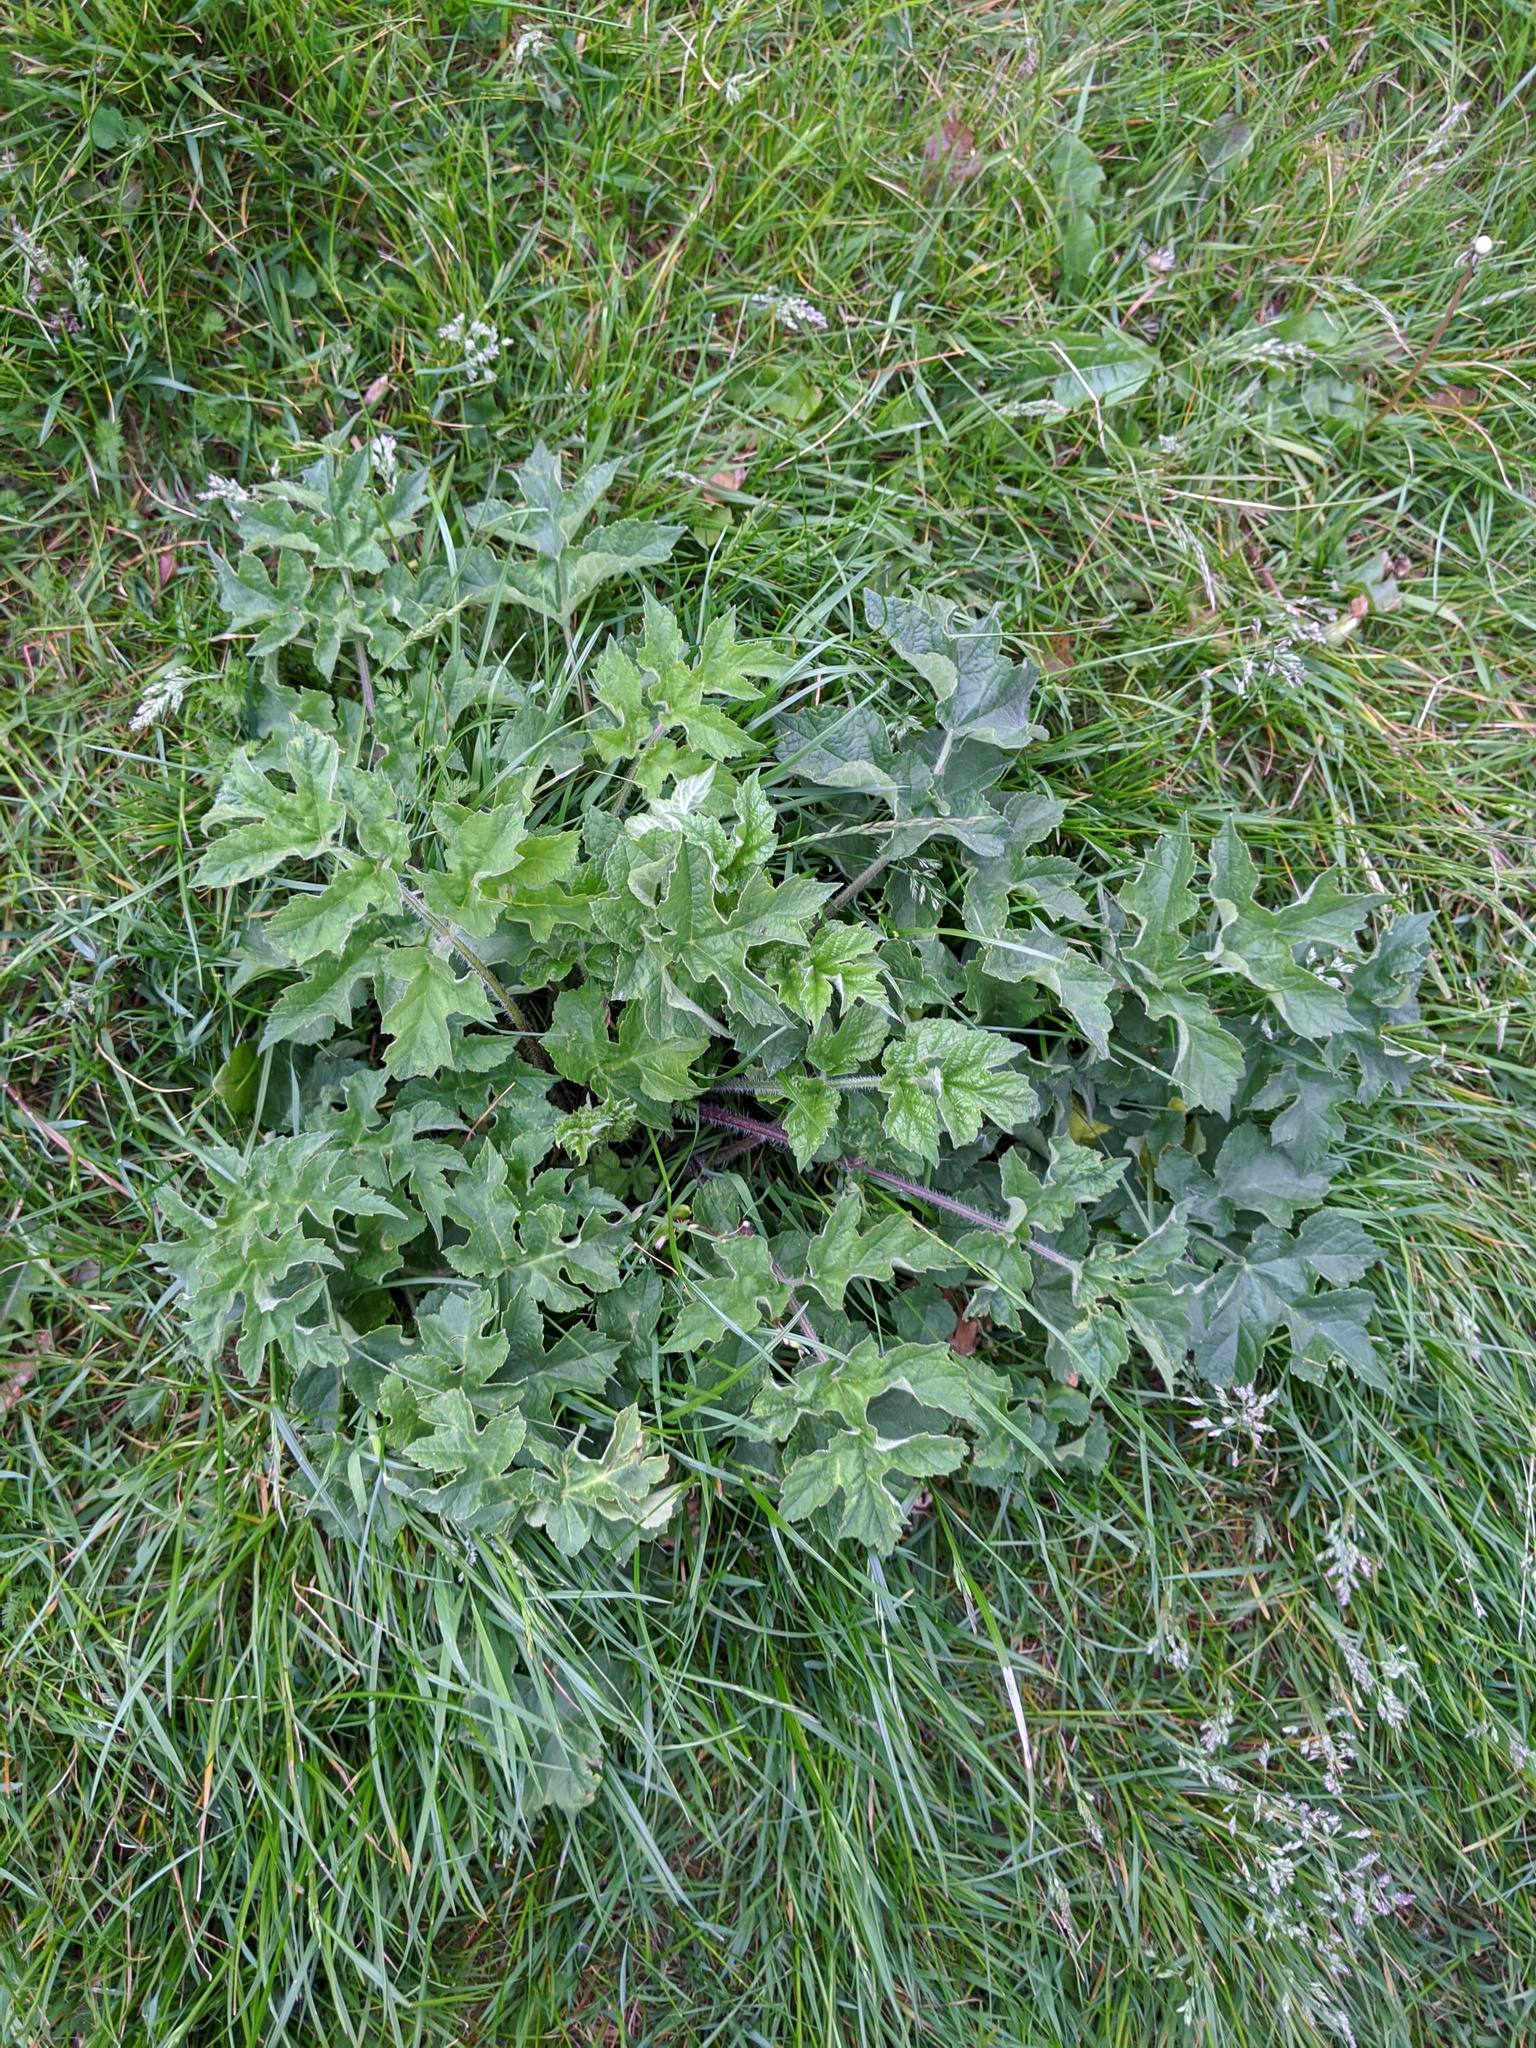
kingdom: Plantae
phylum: Tracheophyta
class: Magnoliopsida
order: Apiales
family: Apiaceae
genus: Heracleum
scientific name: Heracleum sphondylium
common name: Hogweed
